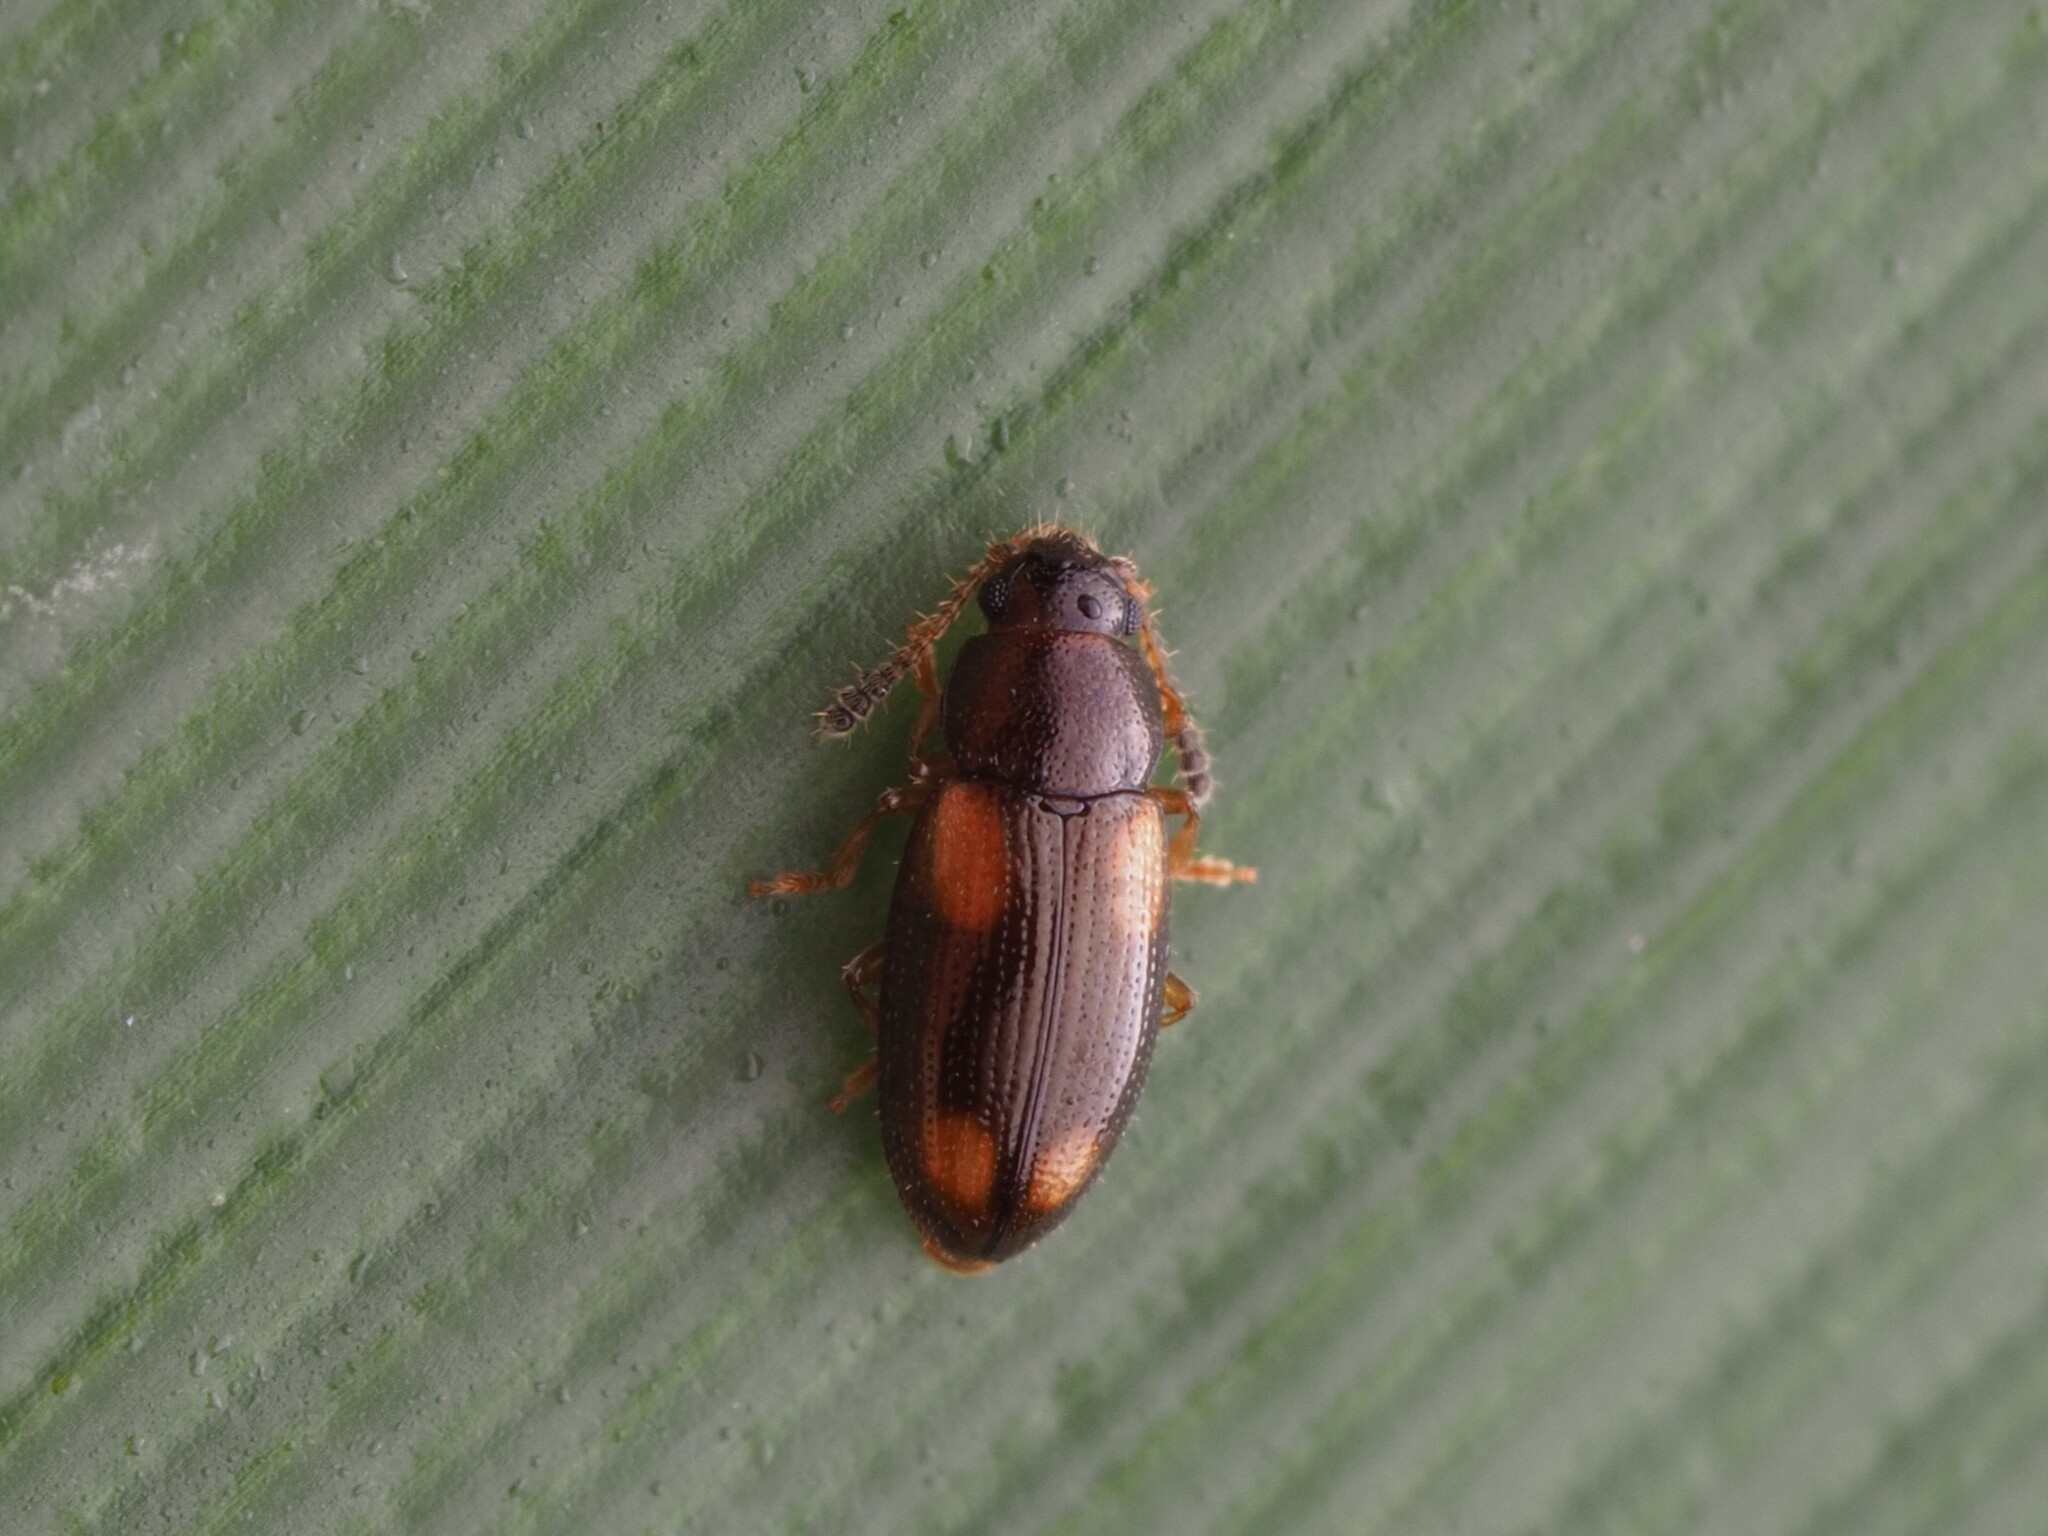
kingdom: Animalia
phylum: Arthropoda
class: Insecta
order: Coleoptera
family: Erotylidae
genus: Loberus
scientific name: Loberus nitens
